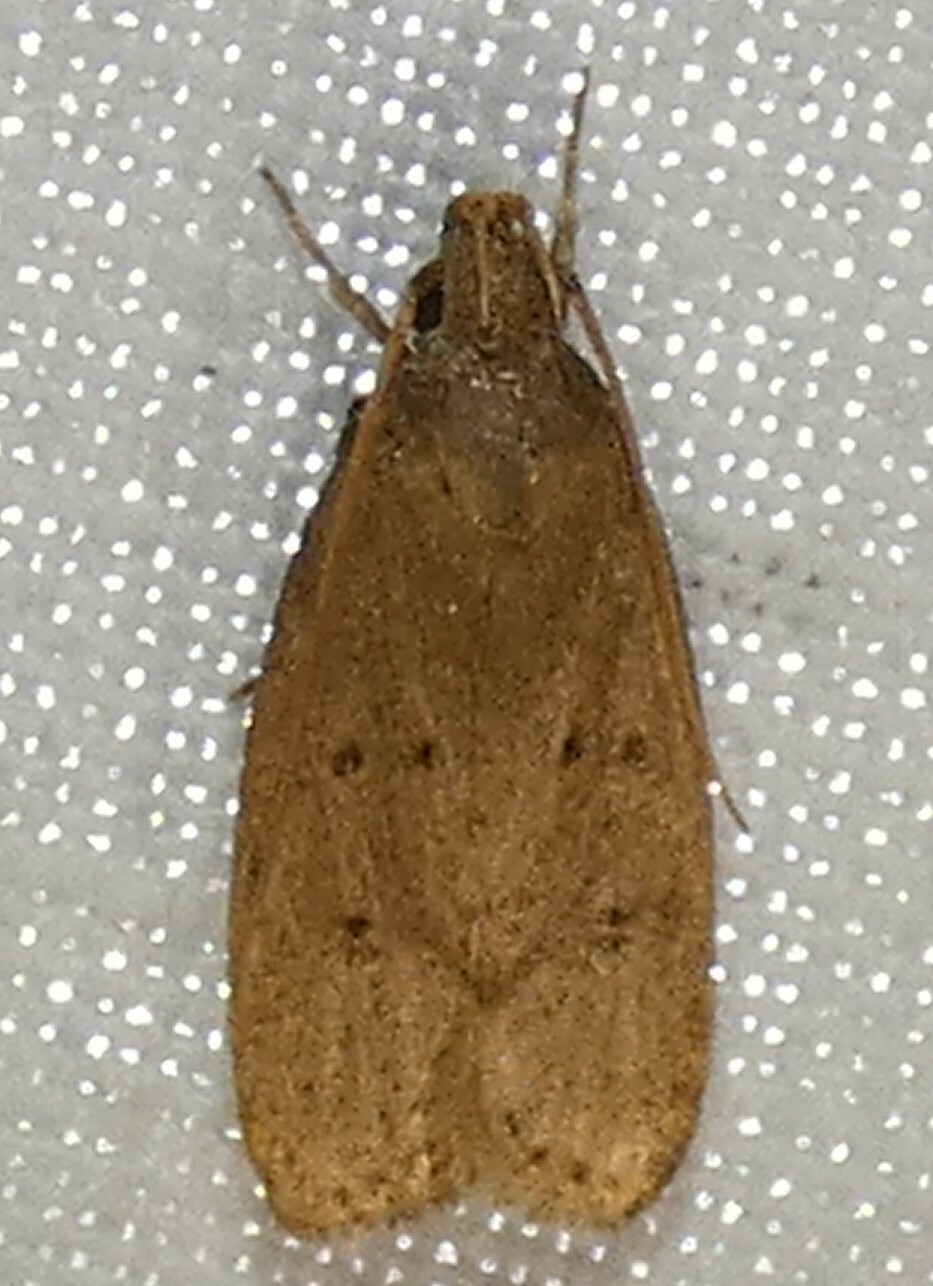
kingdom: Animalia
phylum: Arthropoda
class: Insecta
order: Lepidoptera
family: Autostichidae
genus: Autosticha
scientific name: Autosticha kyotensis
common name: Kyoto moth
